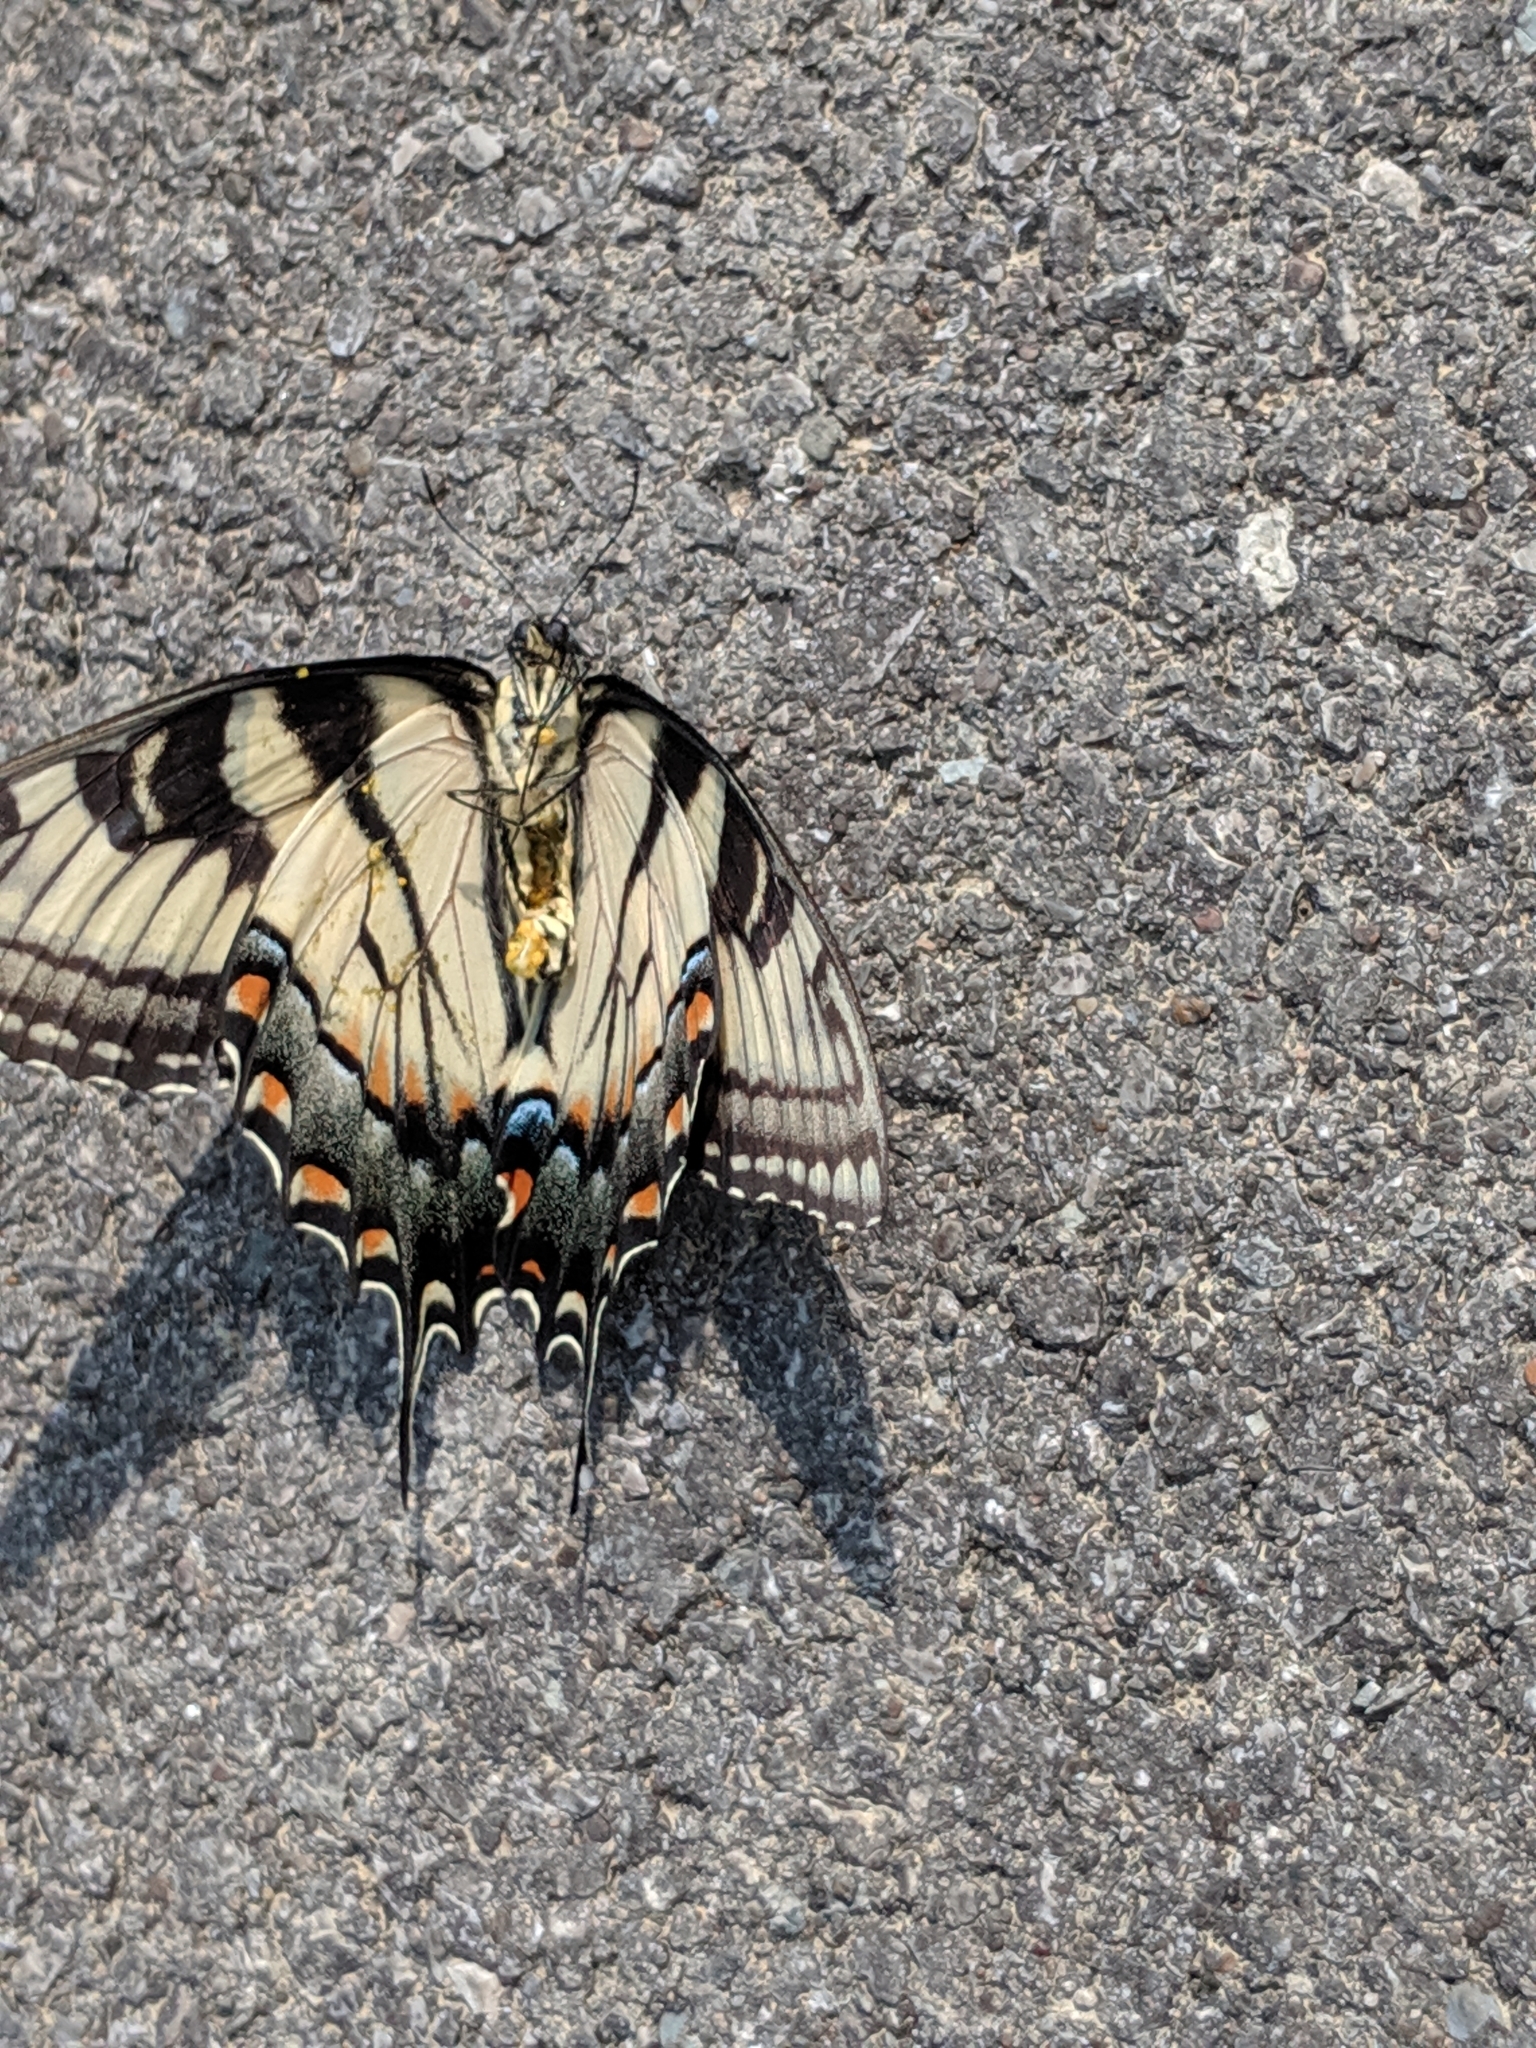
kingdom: Animalia
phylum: Arthropoda
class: Insecta
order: Lepidoptera
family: Papilionidae
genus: Papilio
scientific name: Papilio glaucus
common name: Tiger swallowtail
